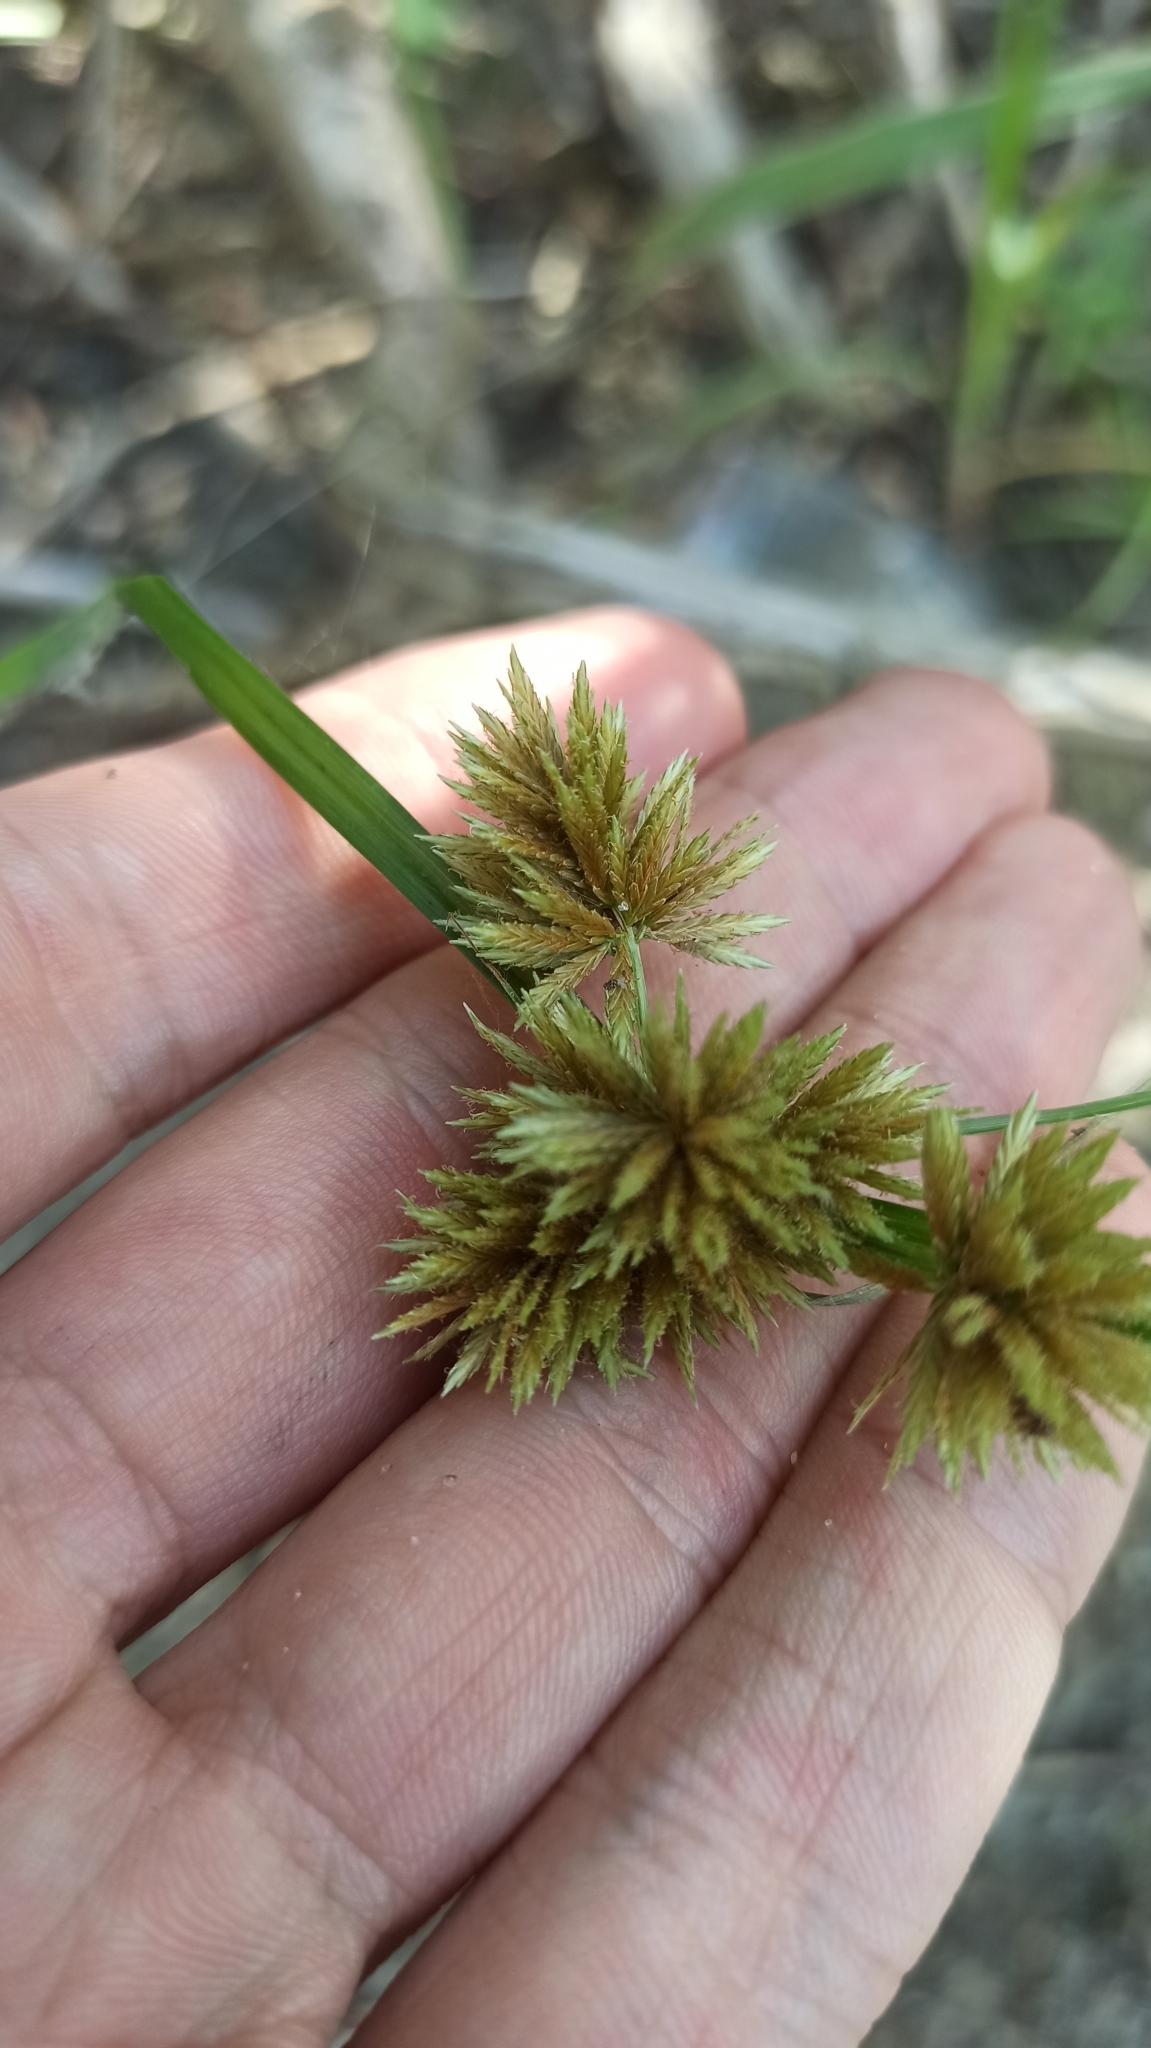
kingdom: Plantae
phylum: Tracheophyta
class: Liliopsida
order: Poales
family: Cyperaceae
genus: Cyperus
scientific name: Cyperus glomeratus
